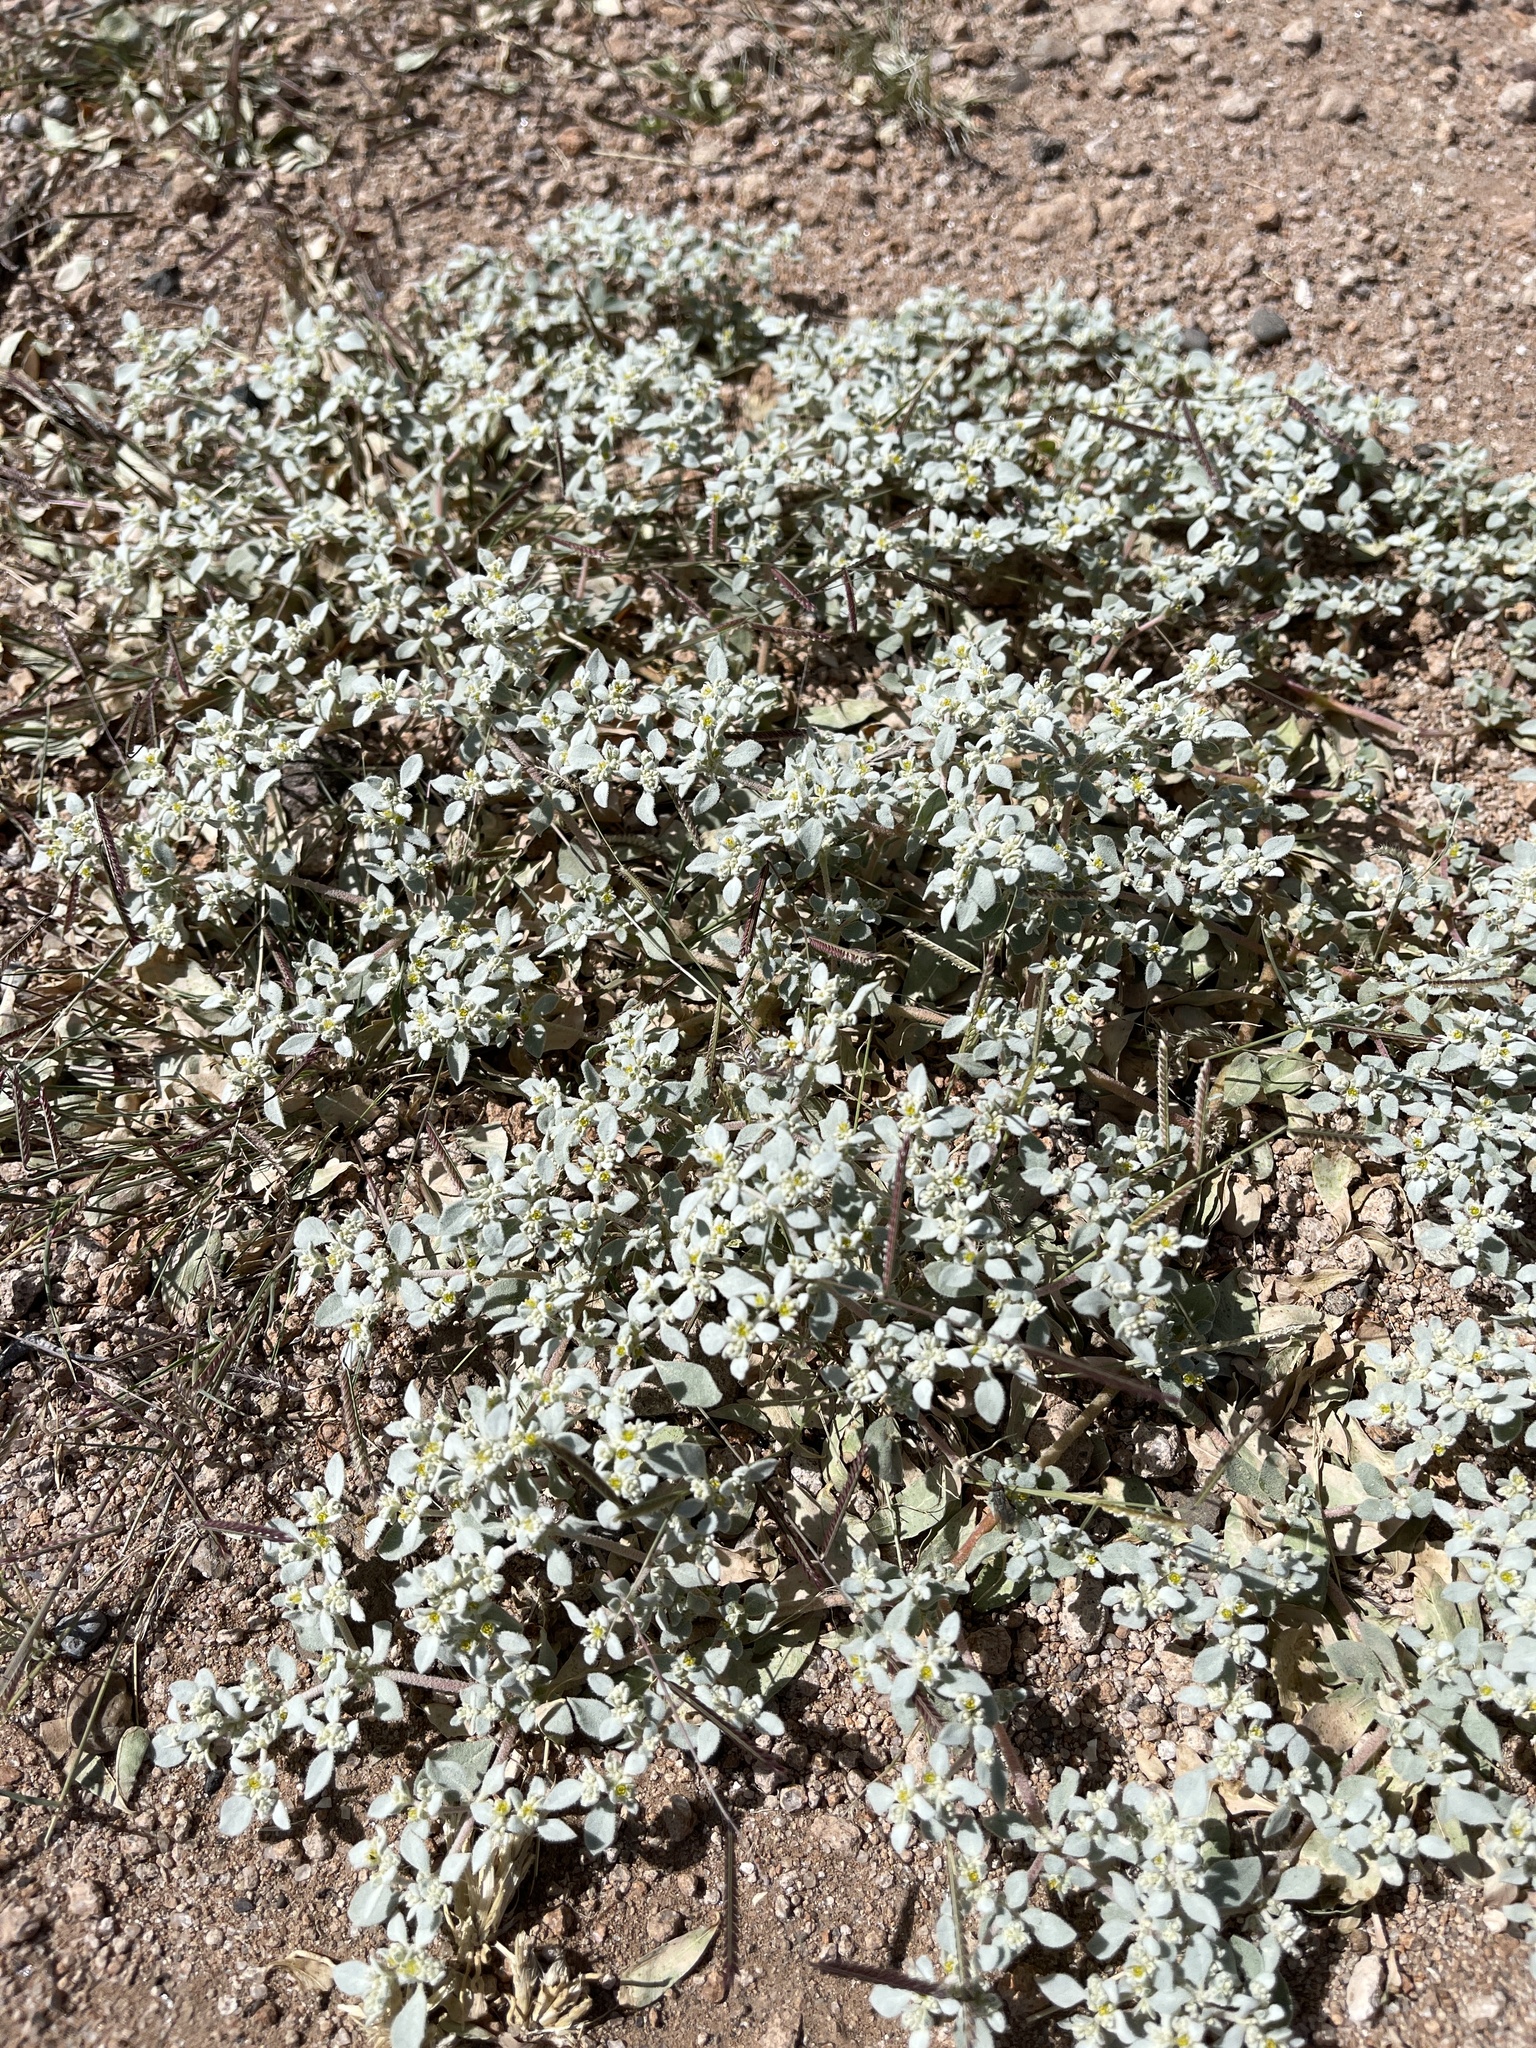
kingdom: Plantae
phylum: Tracheophyta
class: Magnoliopsida
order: Caryophyllales
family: Amaranthaceae
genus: Tidestromia
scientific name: Tidestromia lanuginosa
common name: Woolly tidestromia
